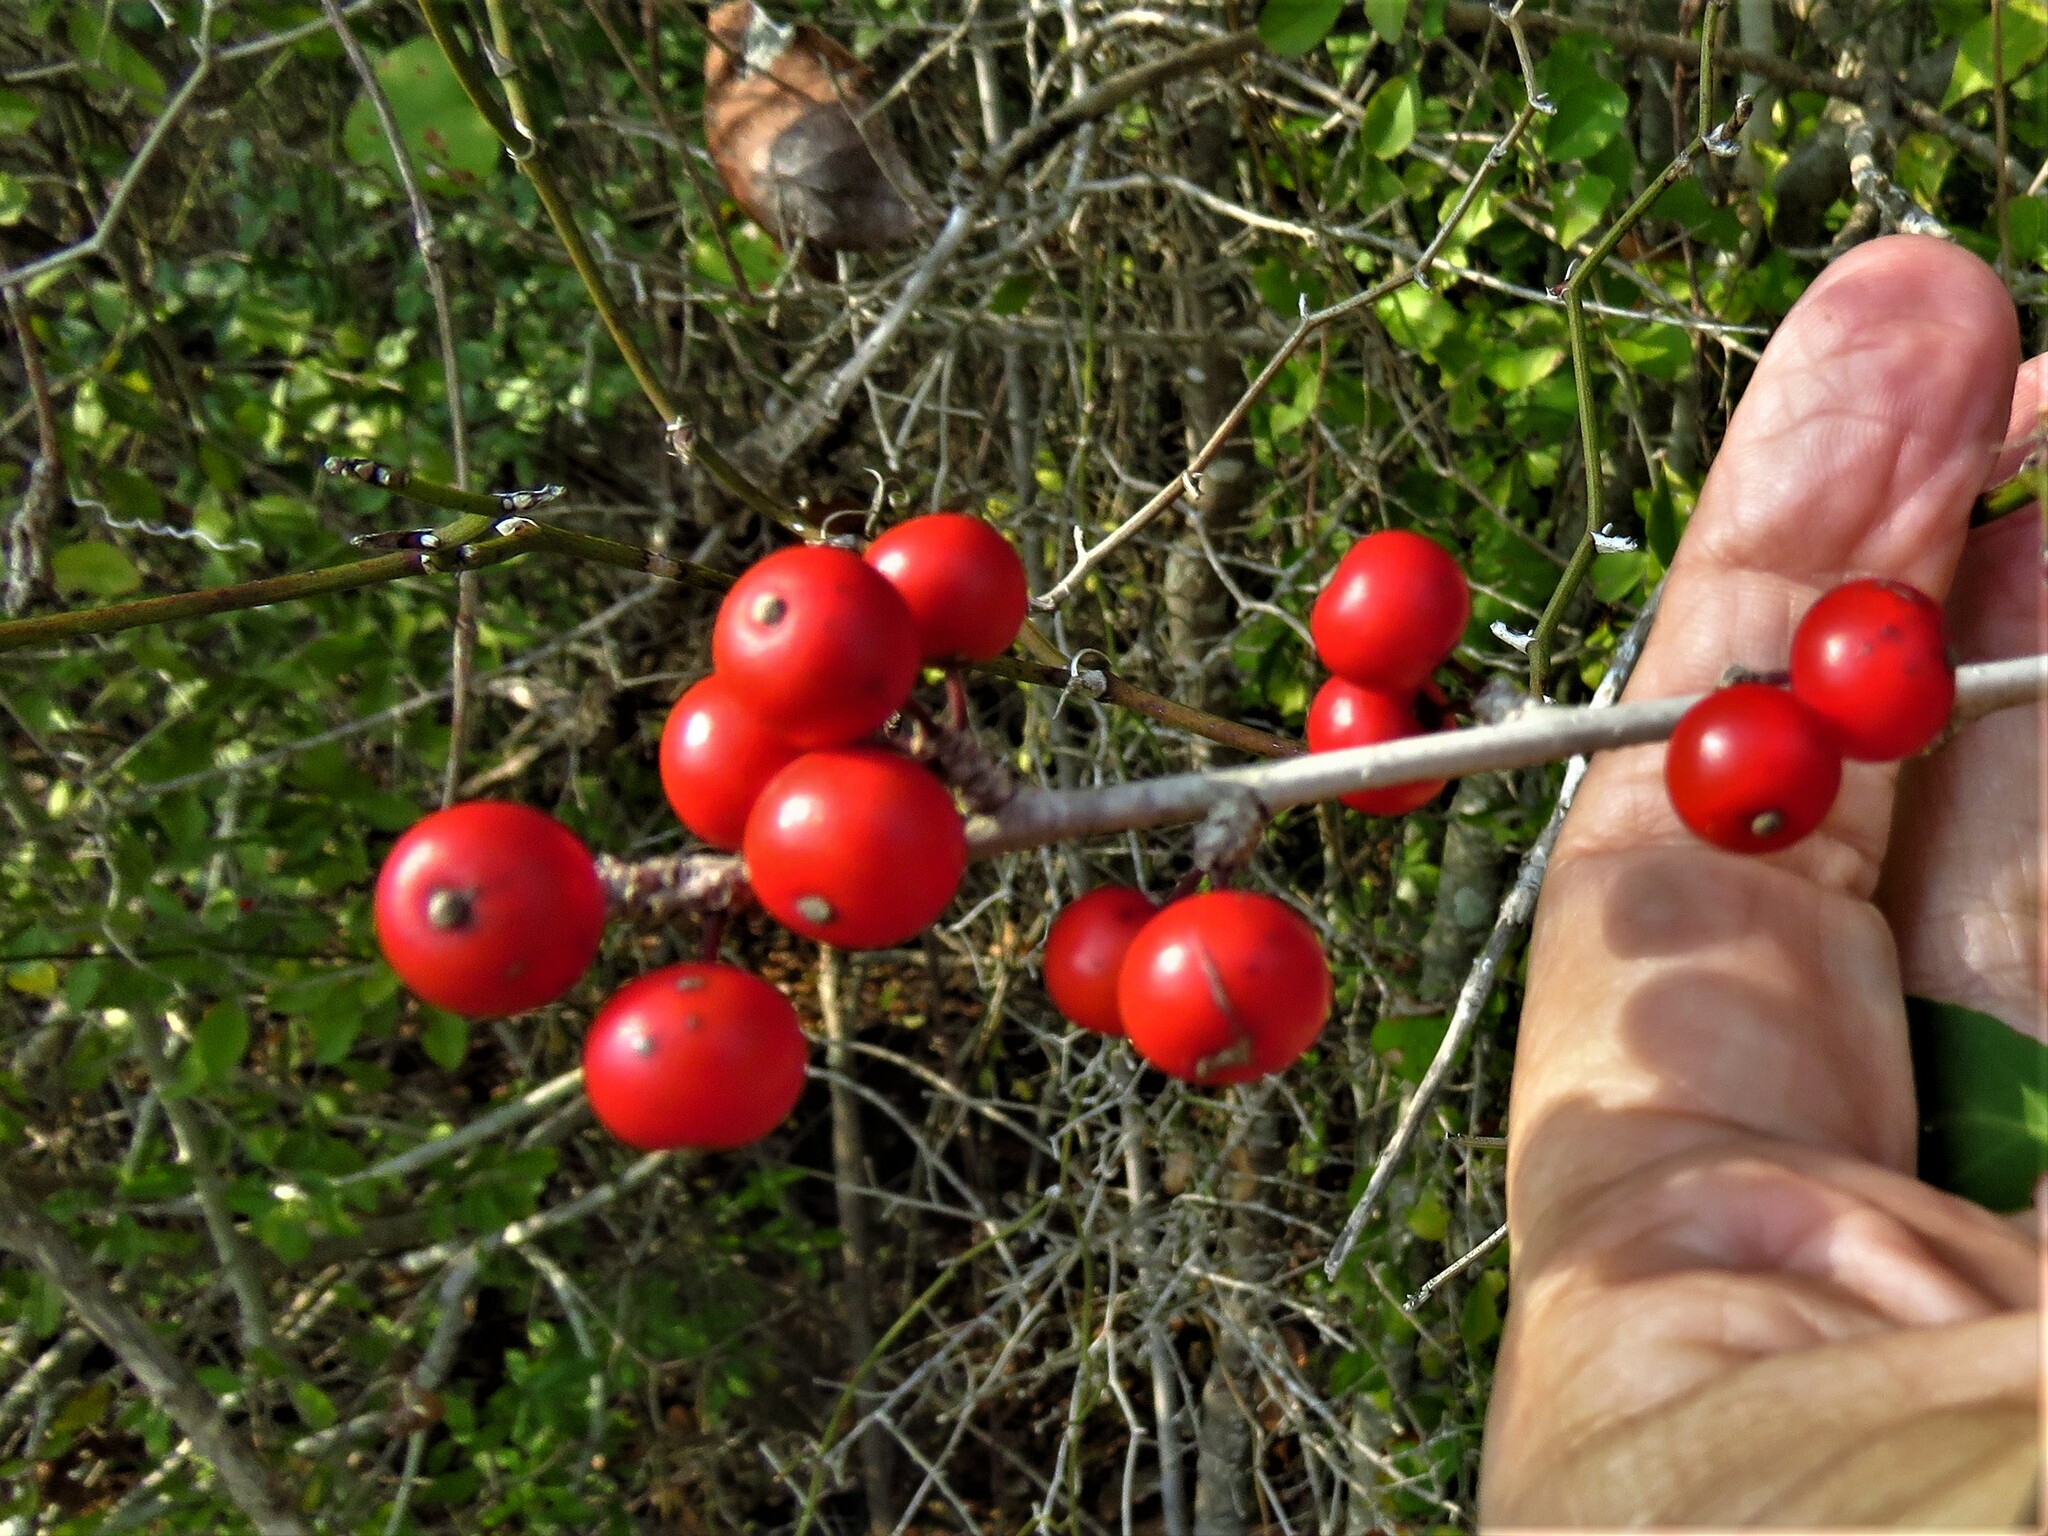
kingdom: Plantae
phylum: Tracheophyta
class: Magnoliopsida
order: Aquifoliales
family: Aquifoliaceae
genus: Ilex
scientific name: Ilex decidua
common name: Possum-haw
